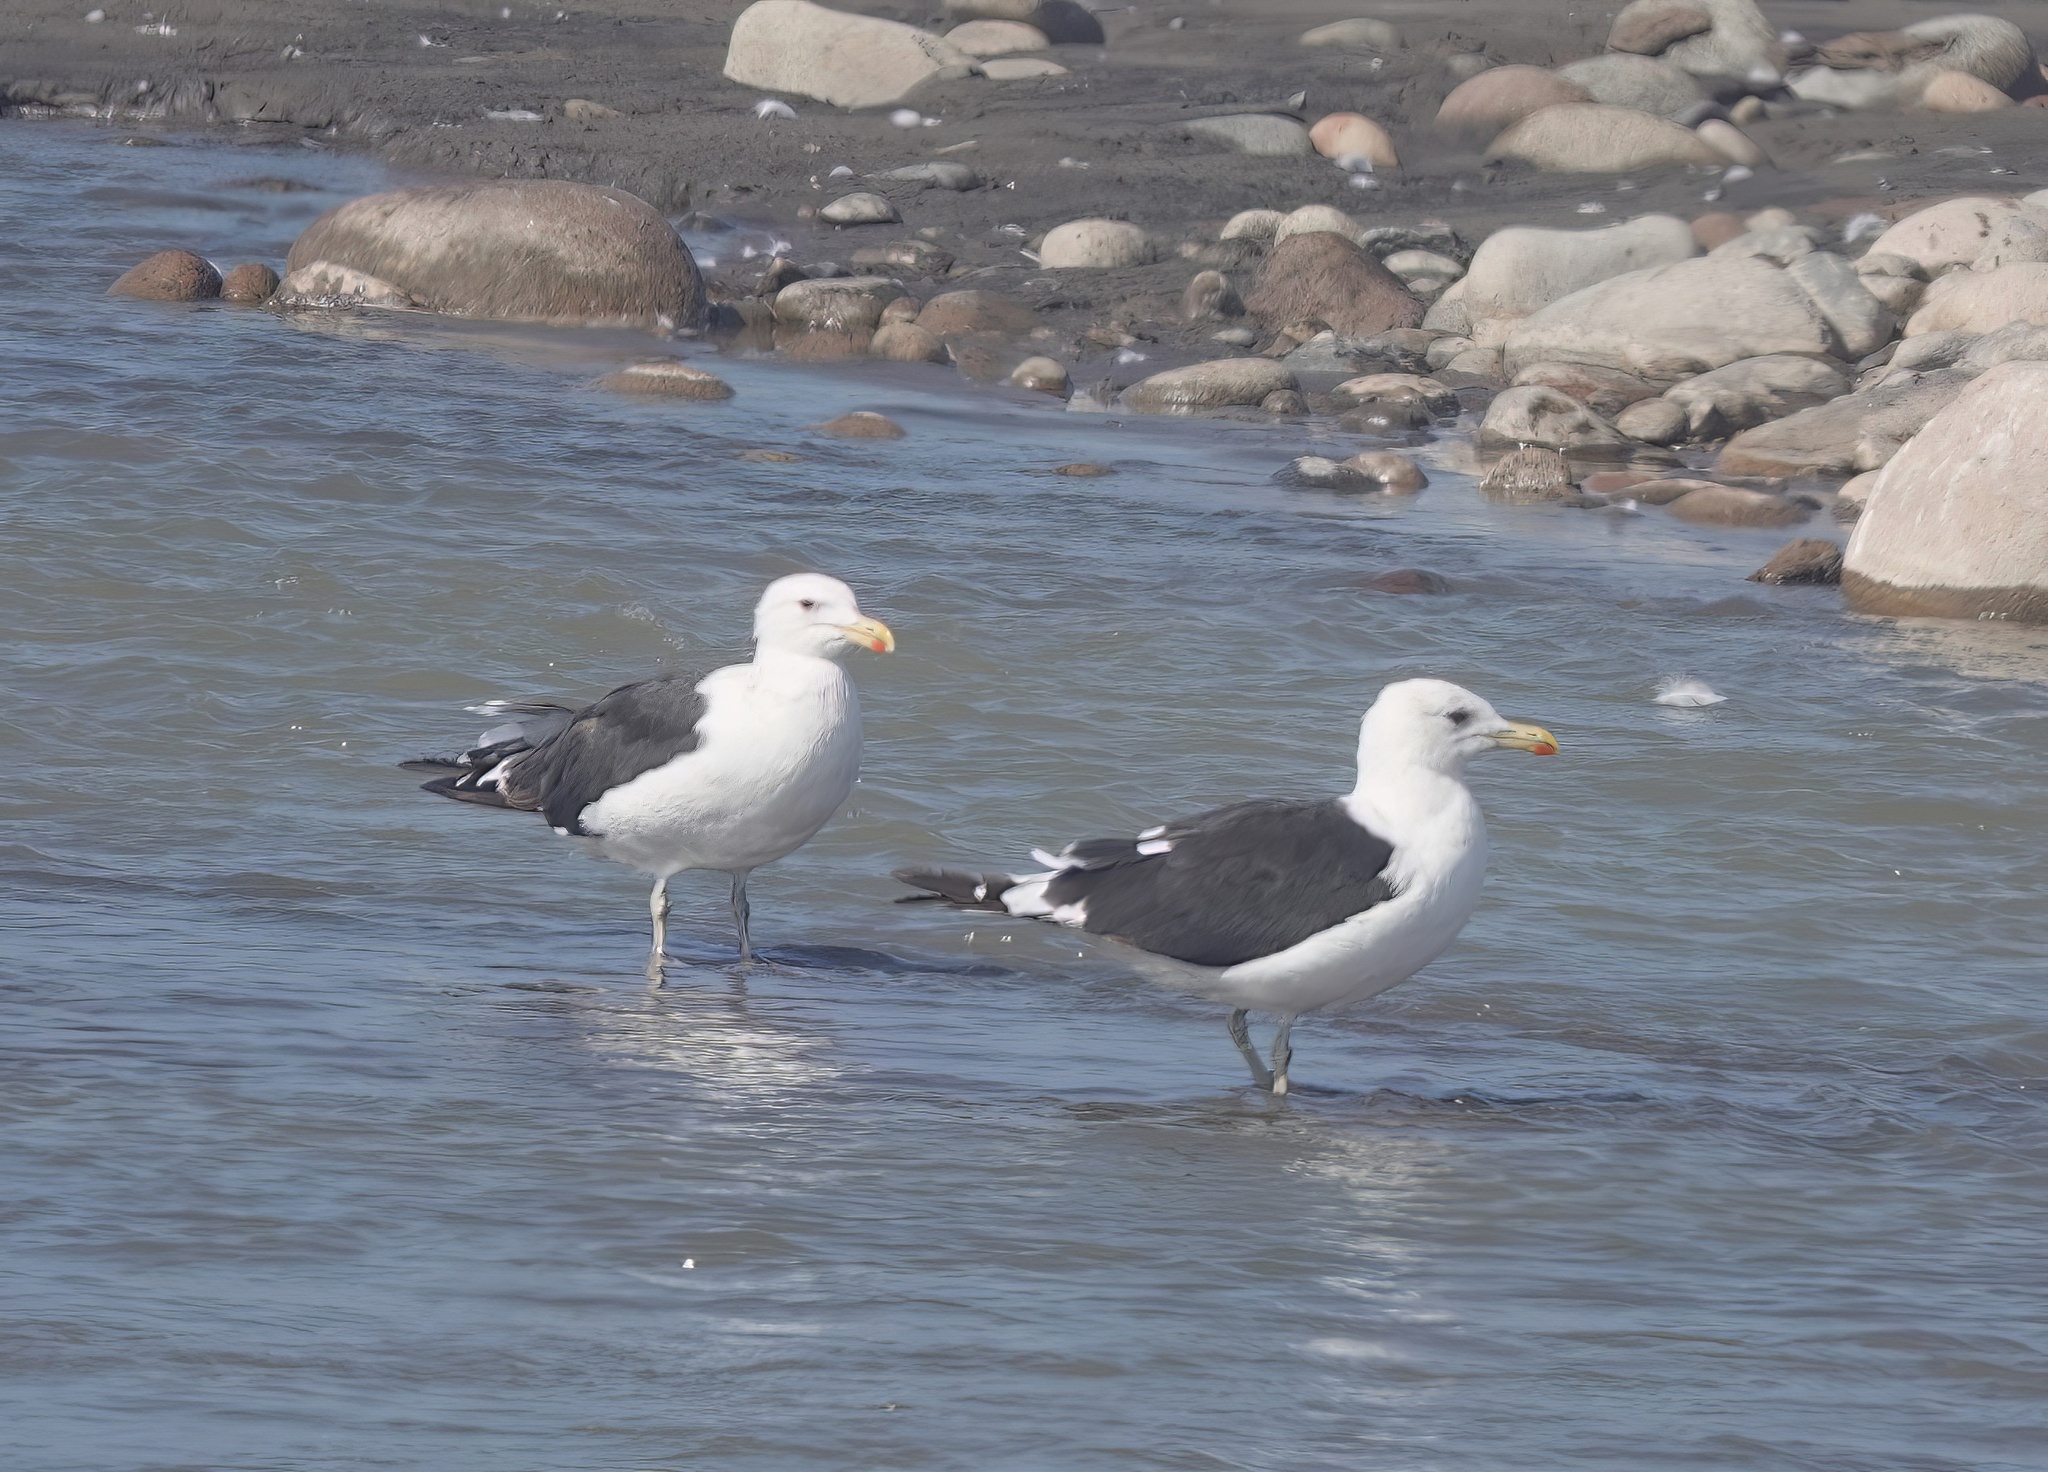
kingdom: Animalia
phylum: Chordata
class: Aves
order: Charadriiformes
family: Laridae
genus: Larus
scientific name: Larus dominicanus
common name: Kelp gull
